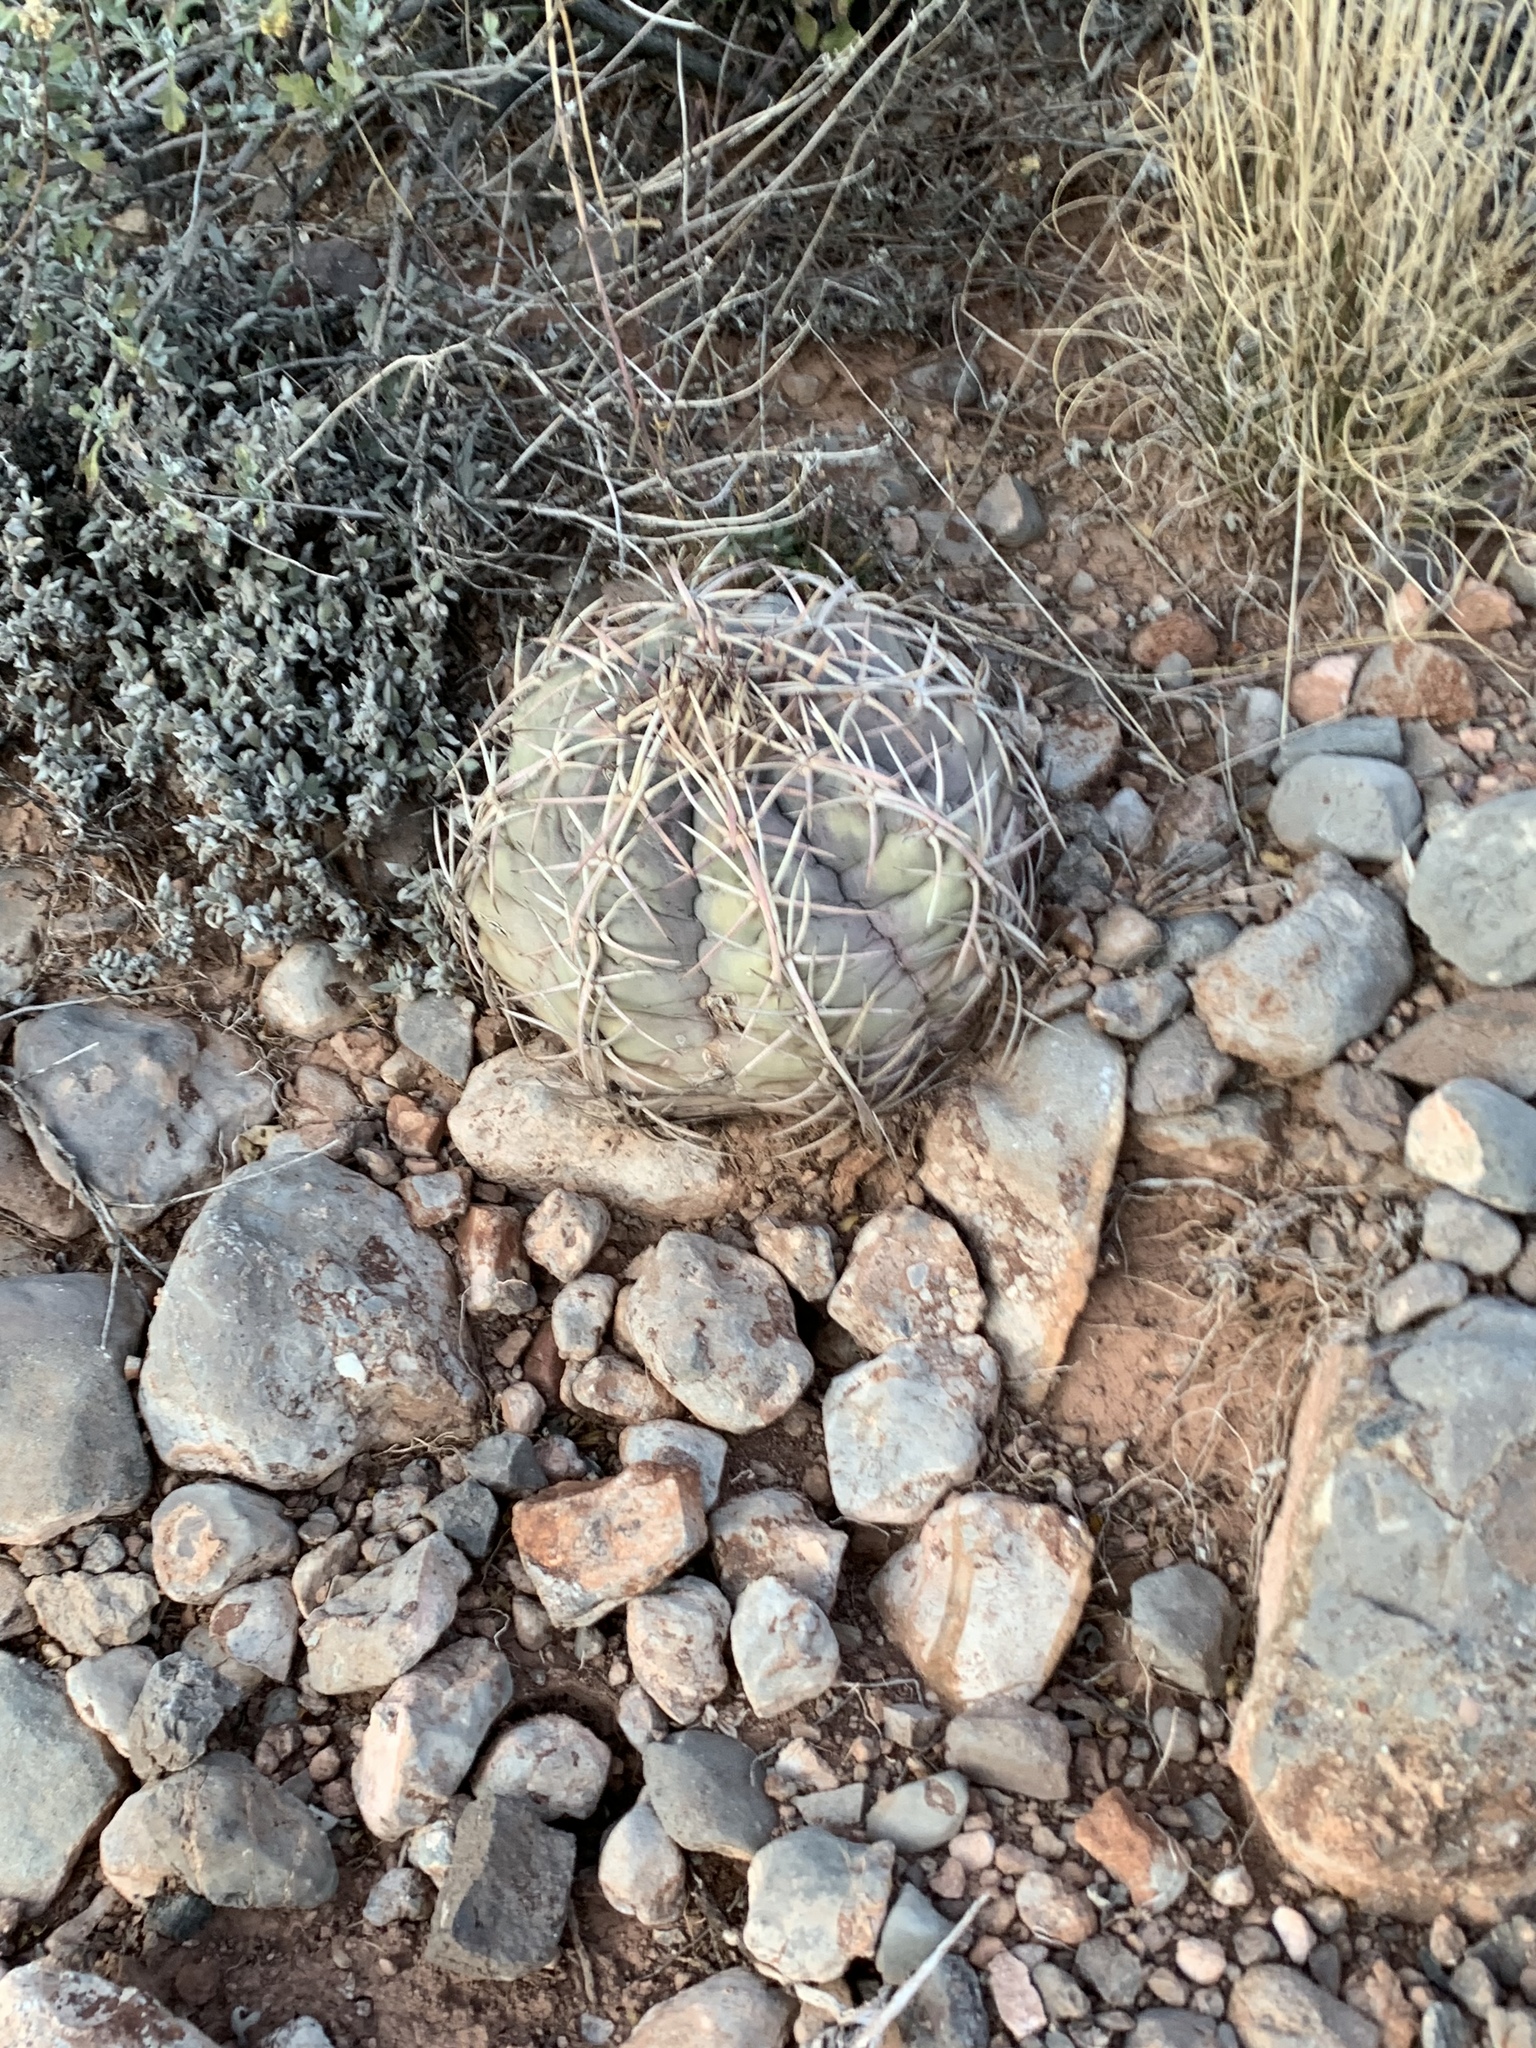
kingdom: Plantae
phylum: Tracheophyta
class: Magnoliopsida
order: Caryophyllales
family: Cactaceae
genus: Echinocactus
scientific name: Echinocactus horizonthalonius
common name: Devilshead
